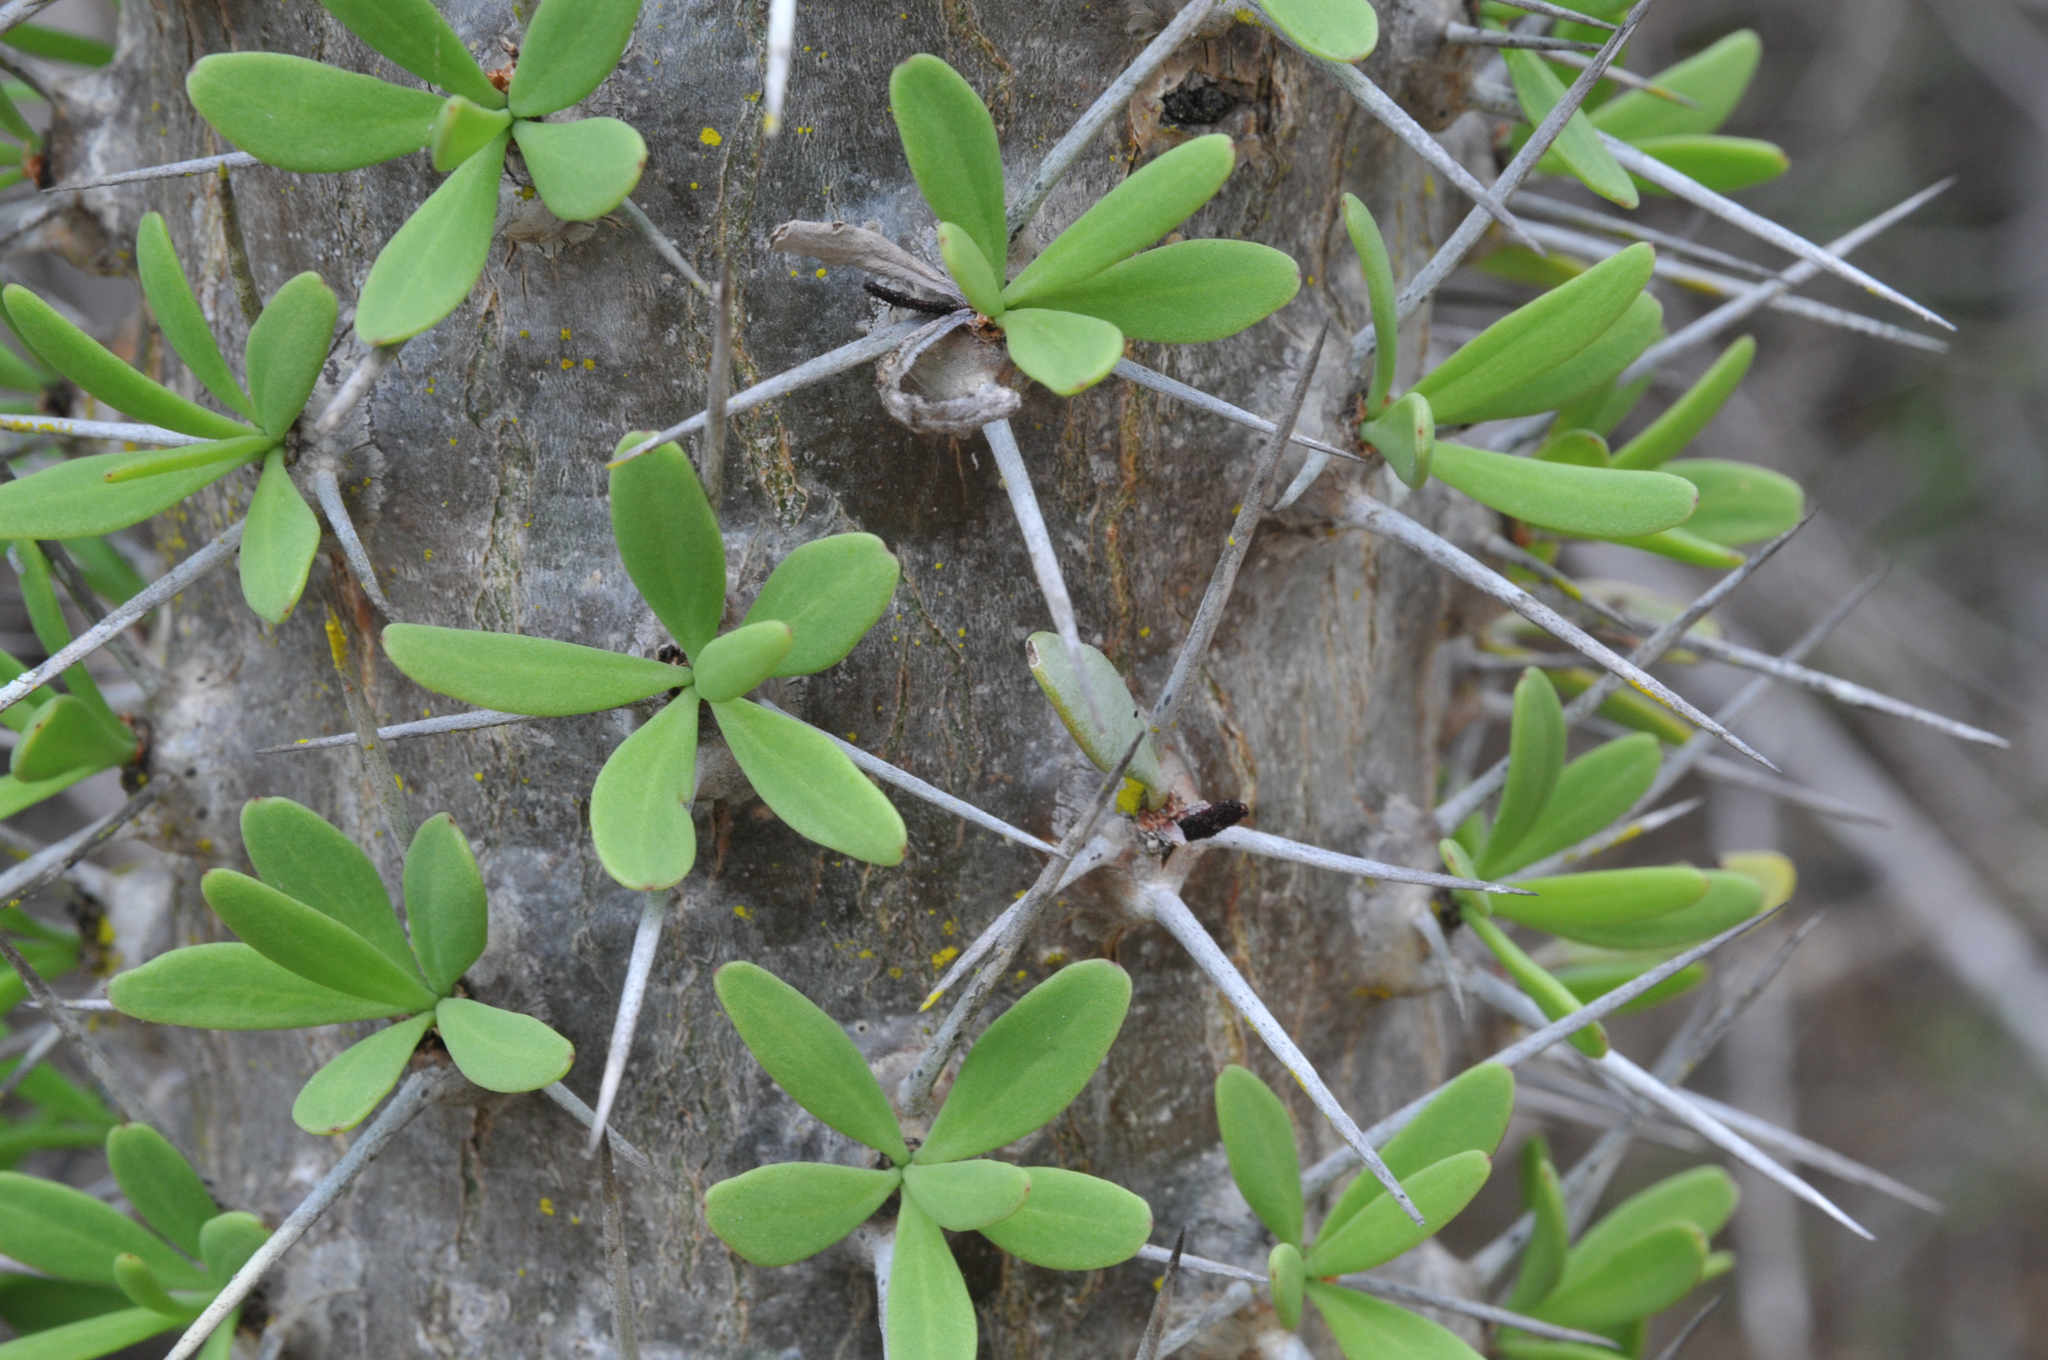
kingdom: Plantae
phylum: Tracheophyta
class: Magnoliopsida
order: Caryophyllales
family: Didiereaceae
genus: Didierea
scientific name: Didierea trollii
